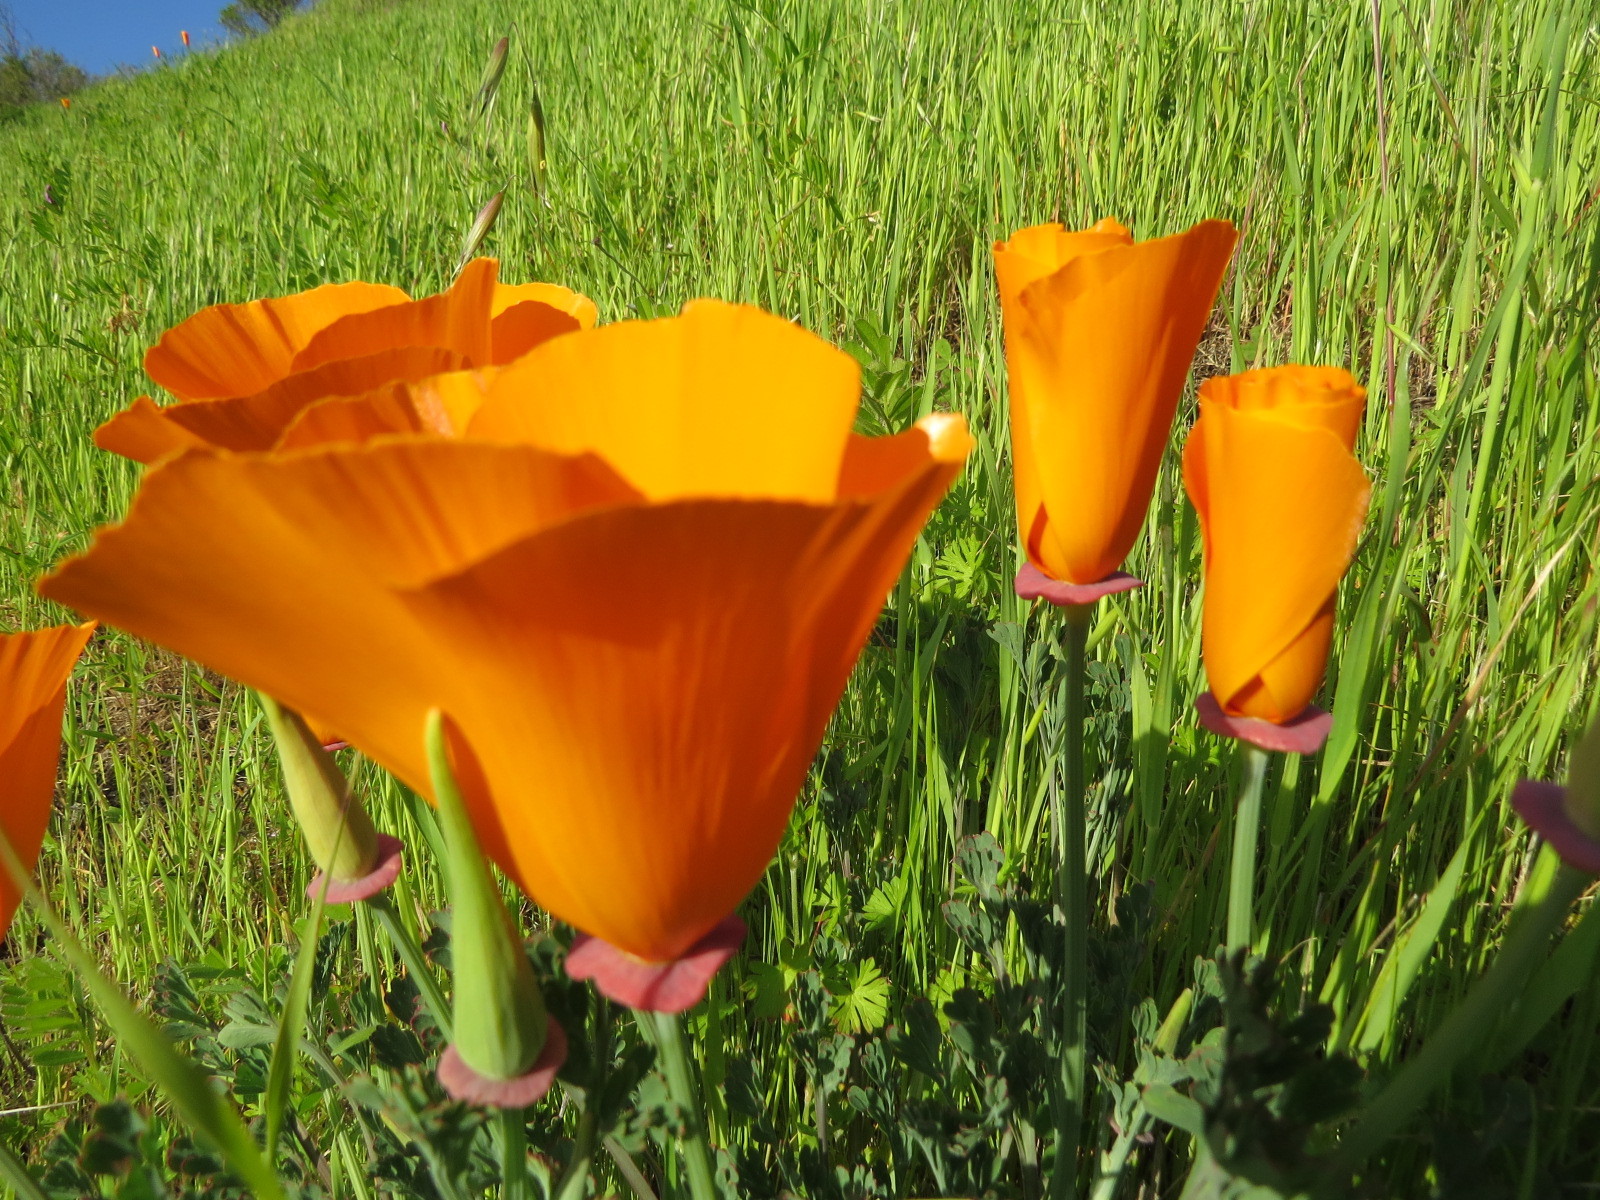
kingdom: Plantae
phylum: Tracheophyta
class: Magnoliopsida
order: Ranunculales
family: Papaveraceae
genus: Eschscholzia
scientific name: Eschscholzia californica
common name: California poppy
